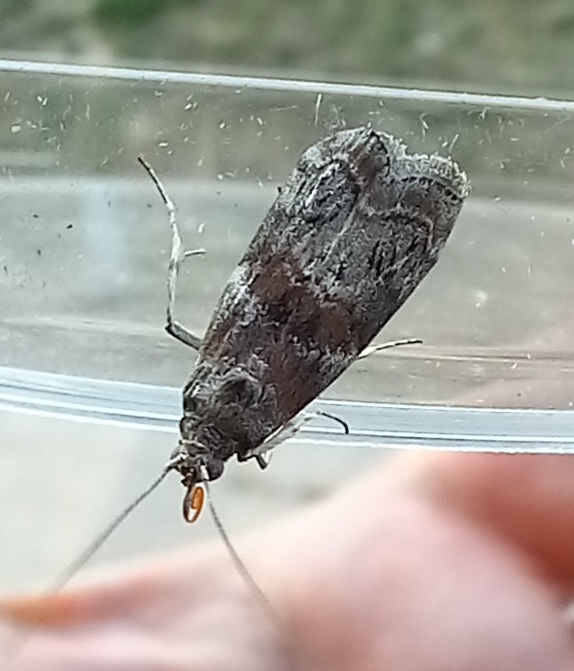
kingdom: Animalia
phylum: Arthropoda
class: Insecta
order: Lepidoptera
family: Pyralidae
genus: Phycita
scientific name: Phycita roborella
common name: Dotted oak knot-horn
